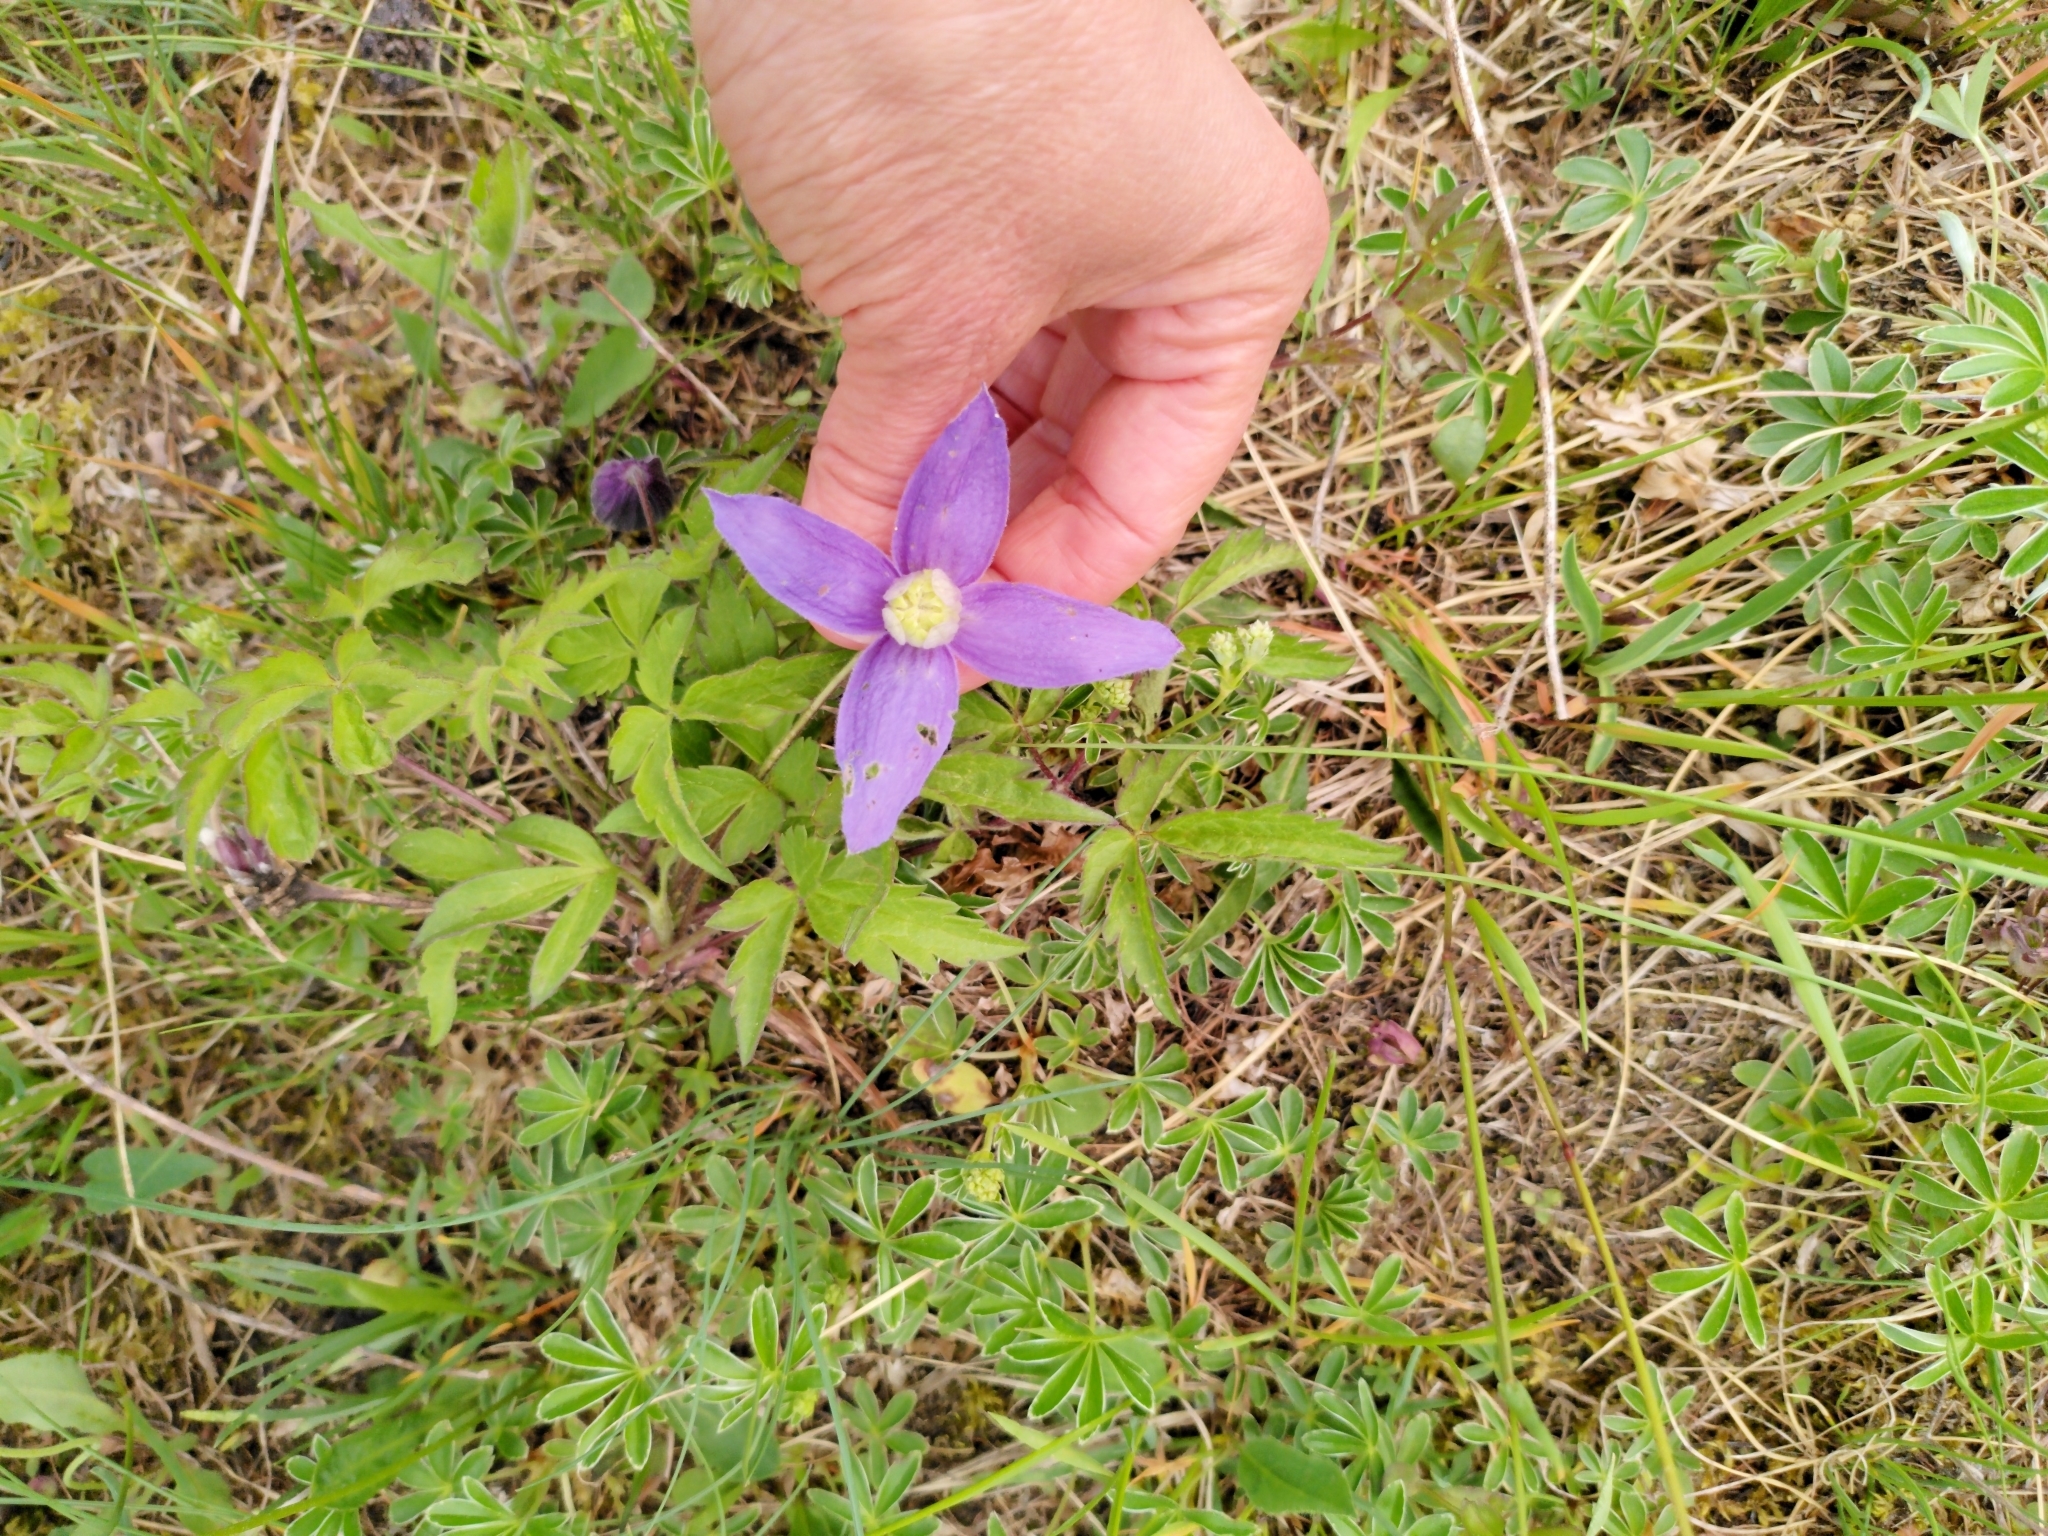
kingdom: Plantae
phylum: Tracheophyta
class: Magnoliopsida
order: Ranunculales
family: Ranunculaceae
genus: Clematis
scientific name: Clematis alpina
